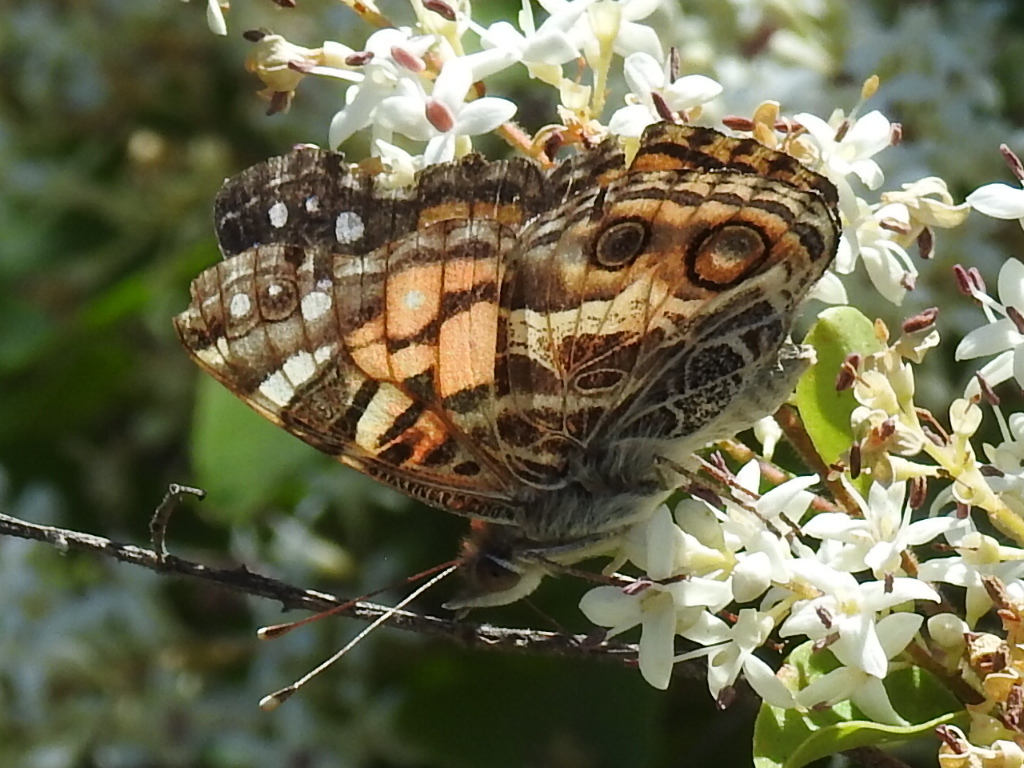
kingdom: Animalia
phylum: Arthropoda
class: Insecta
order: Lepidoptera
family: Nymphalidae
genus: Vanessa
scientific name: Vanessa virginiensis
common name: American lady
